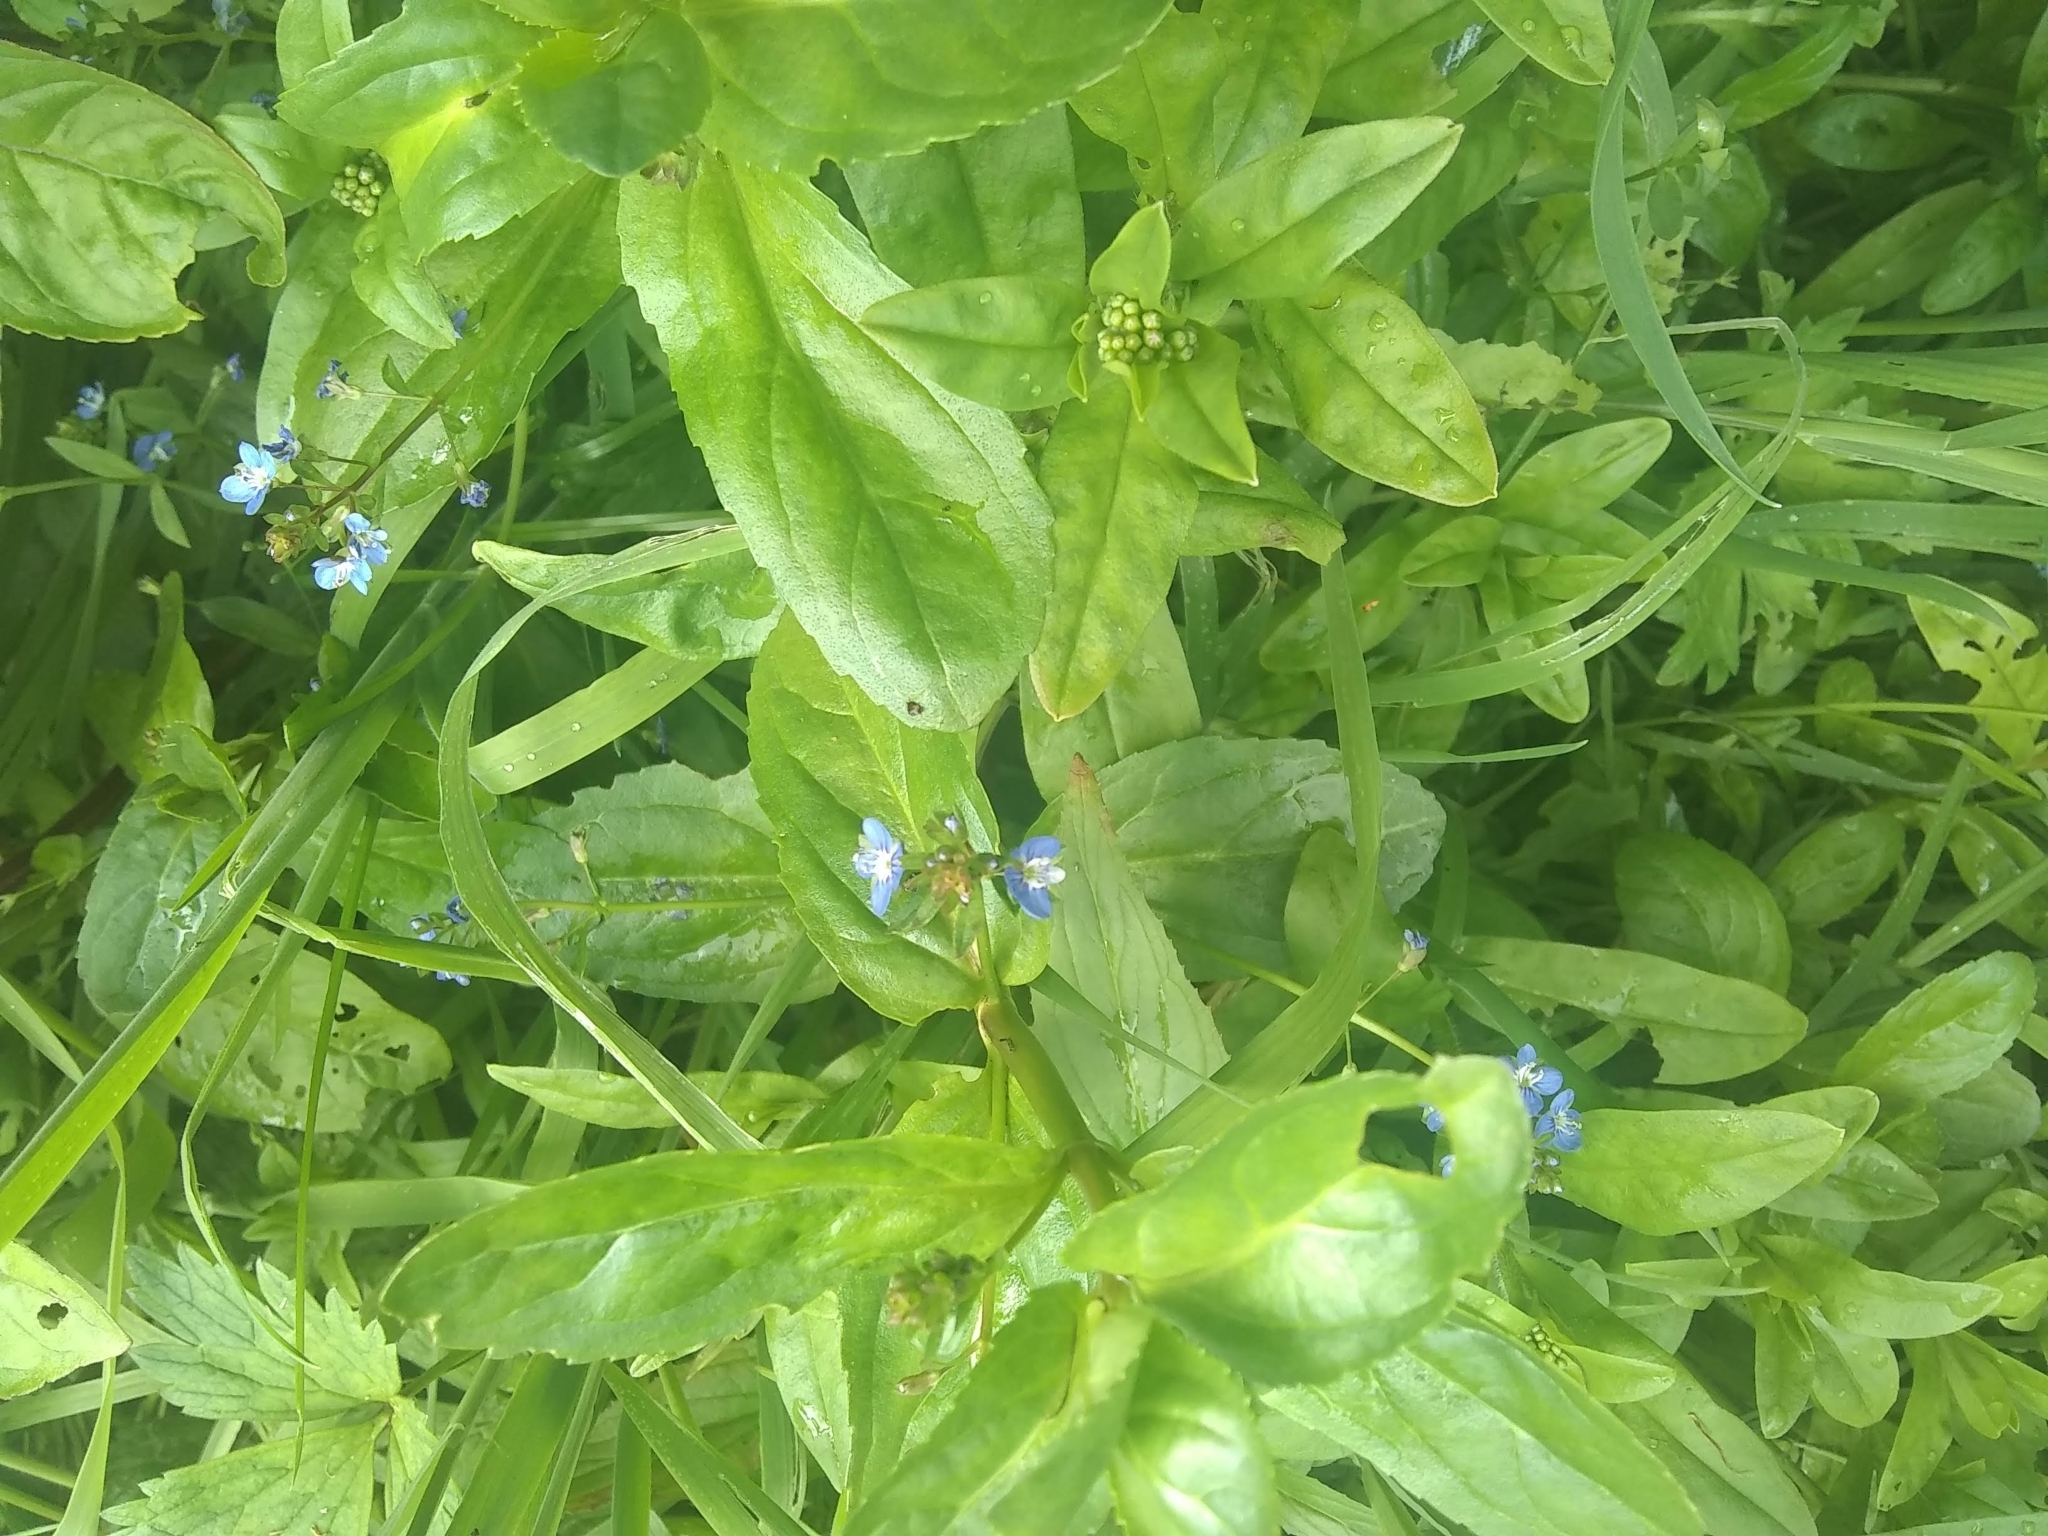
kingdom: Plantae
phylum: Tracheophyta
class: Magnoliopsida
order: Boraginales
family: Boraginaceae
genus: Myosotis
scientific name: Myosotis scorpioides
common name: Water forget-me-not
